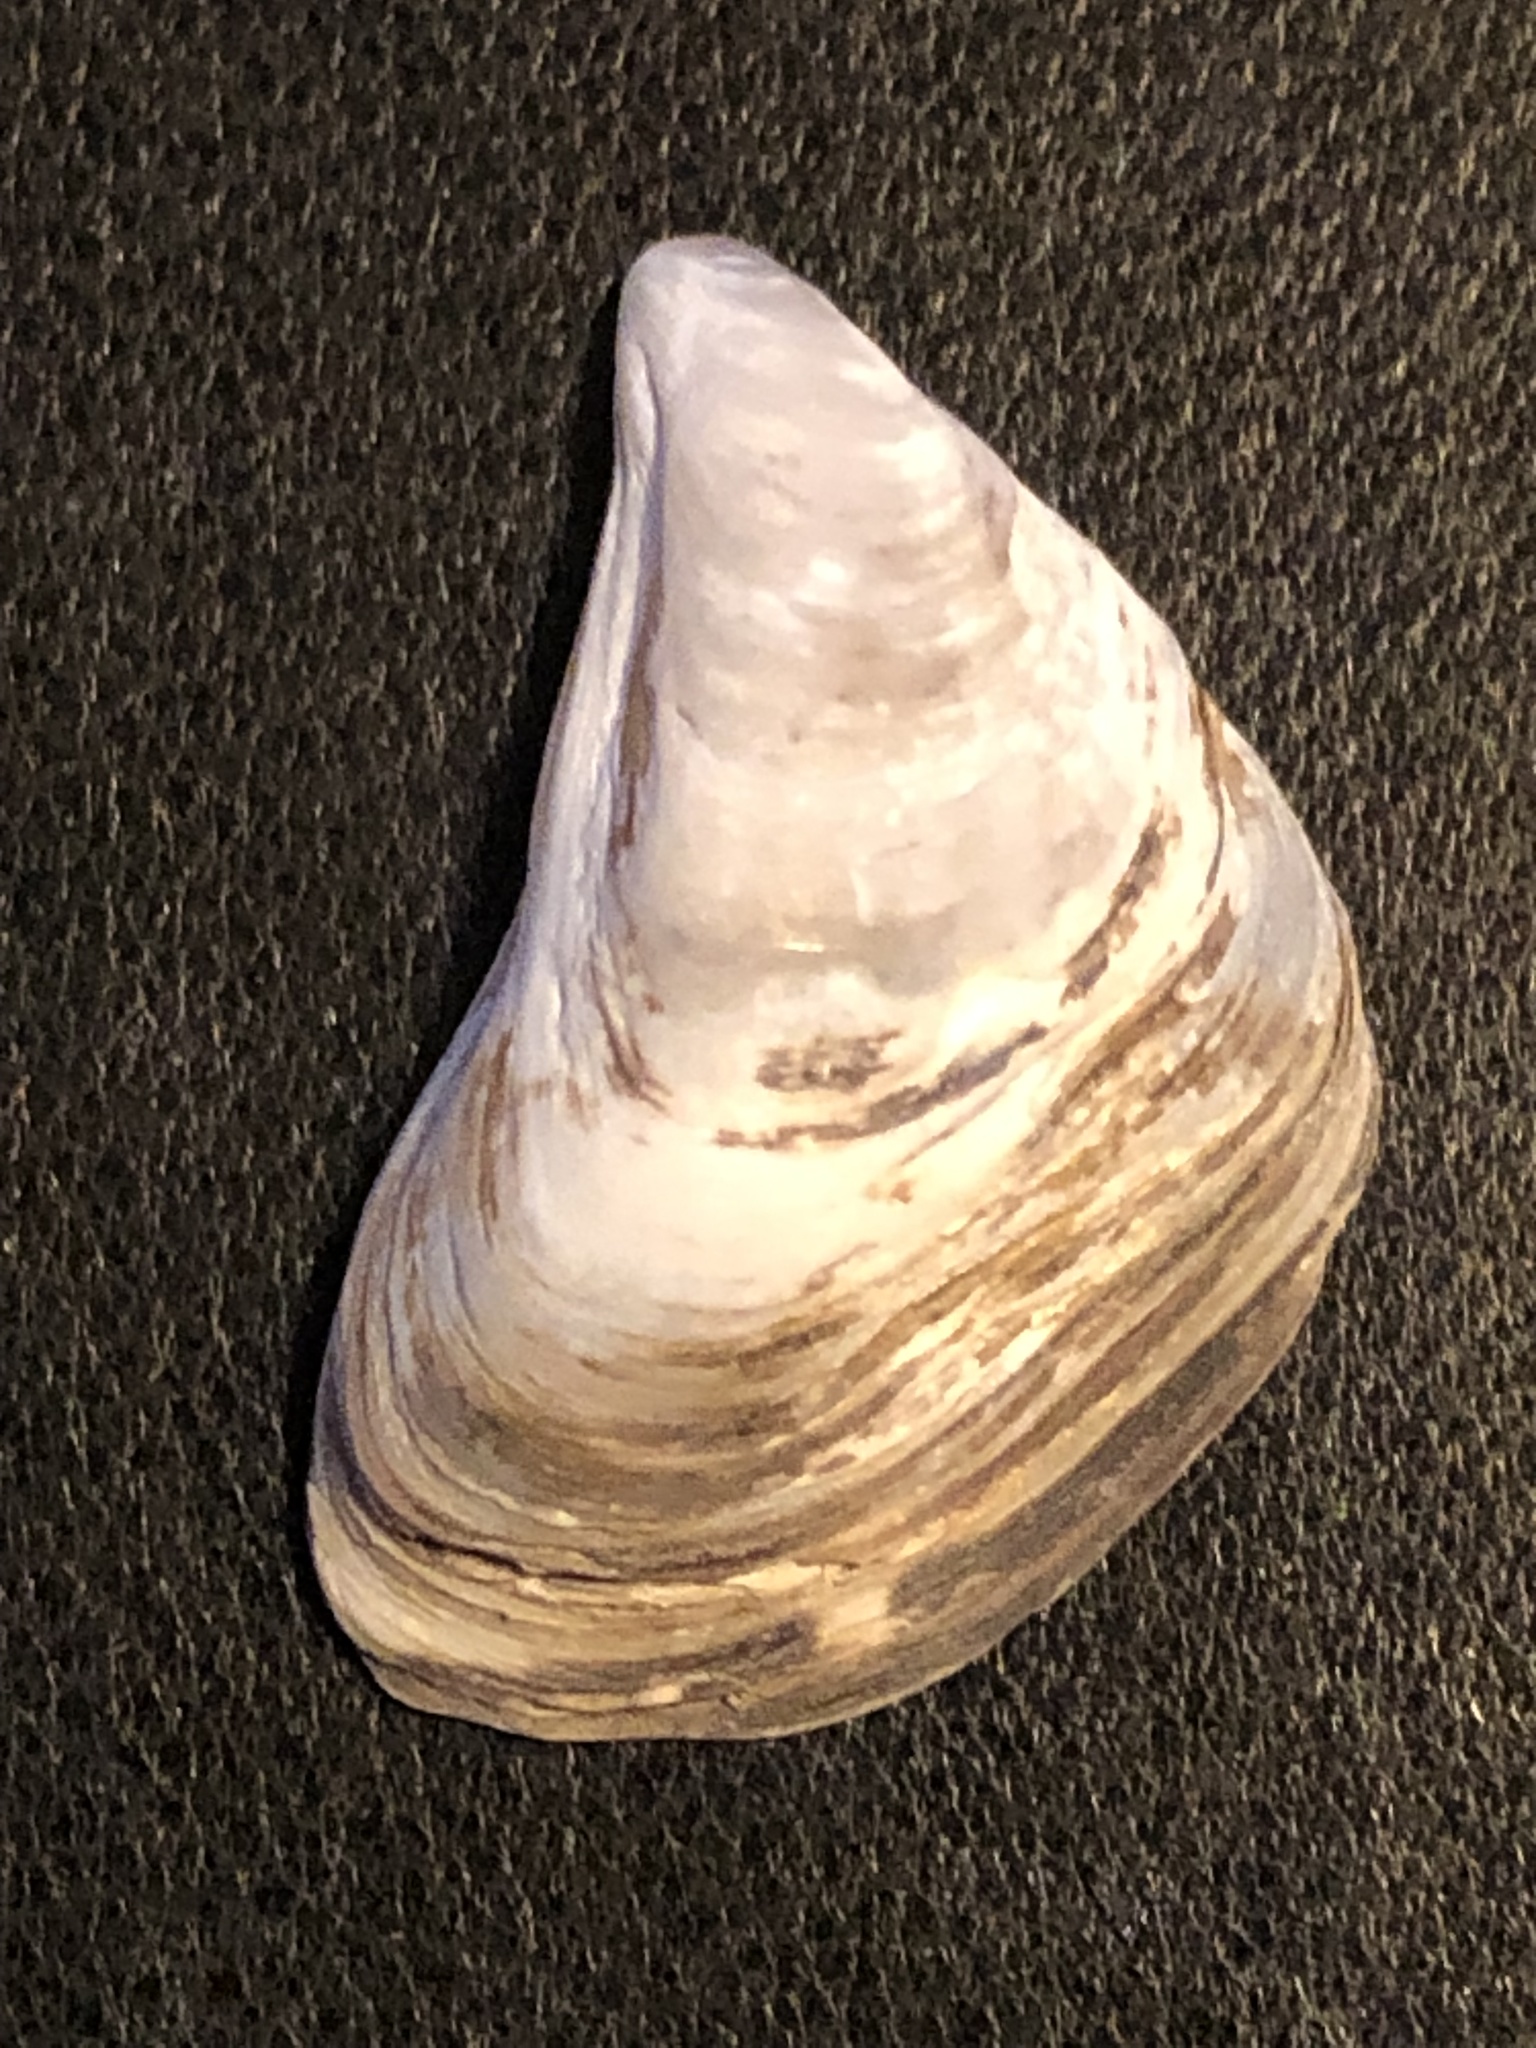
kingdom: Animalia
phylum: Mollusca
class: Bivalvia
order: Myida
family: Dreissenidae
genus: Dreissena
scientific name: Dreissena bugensis
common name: Quagga mussel
